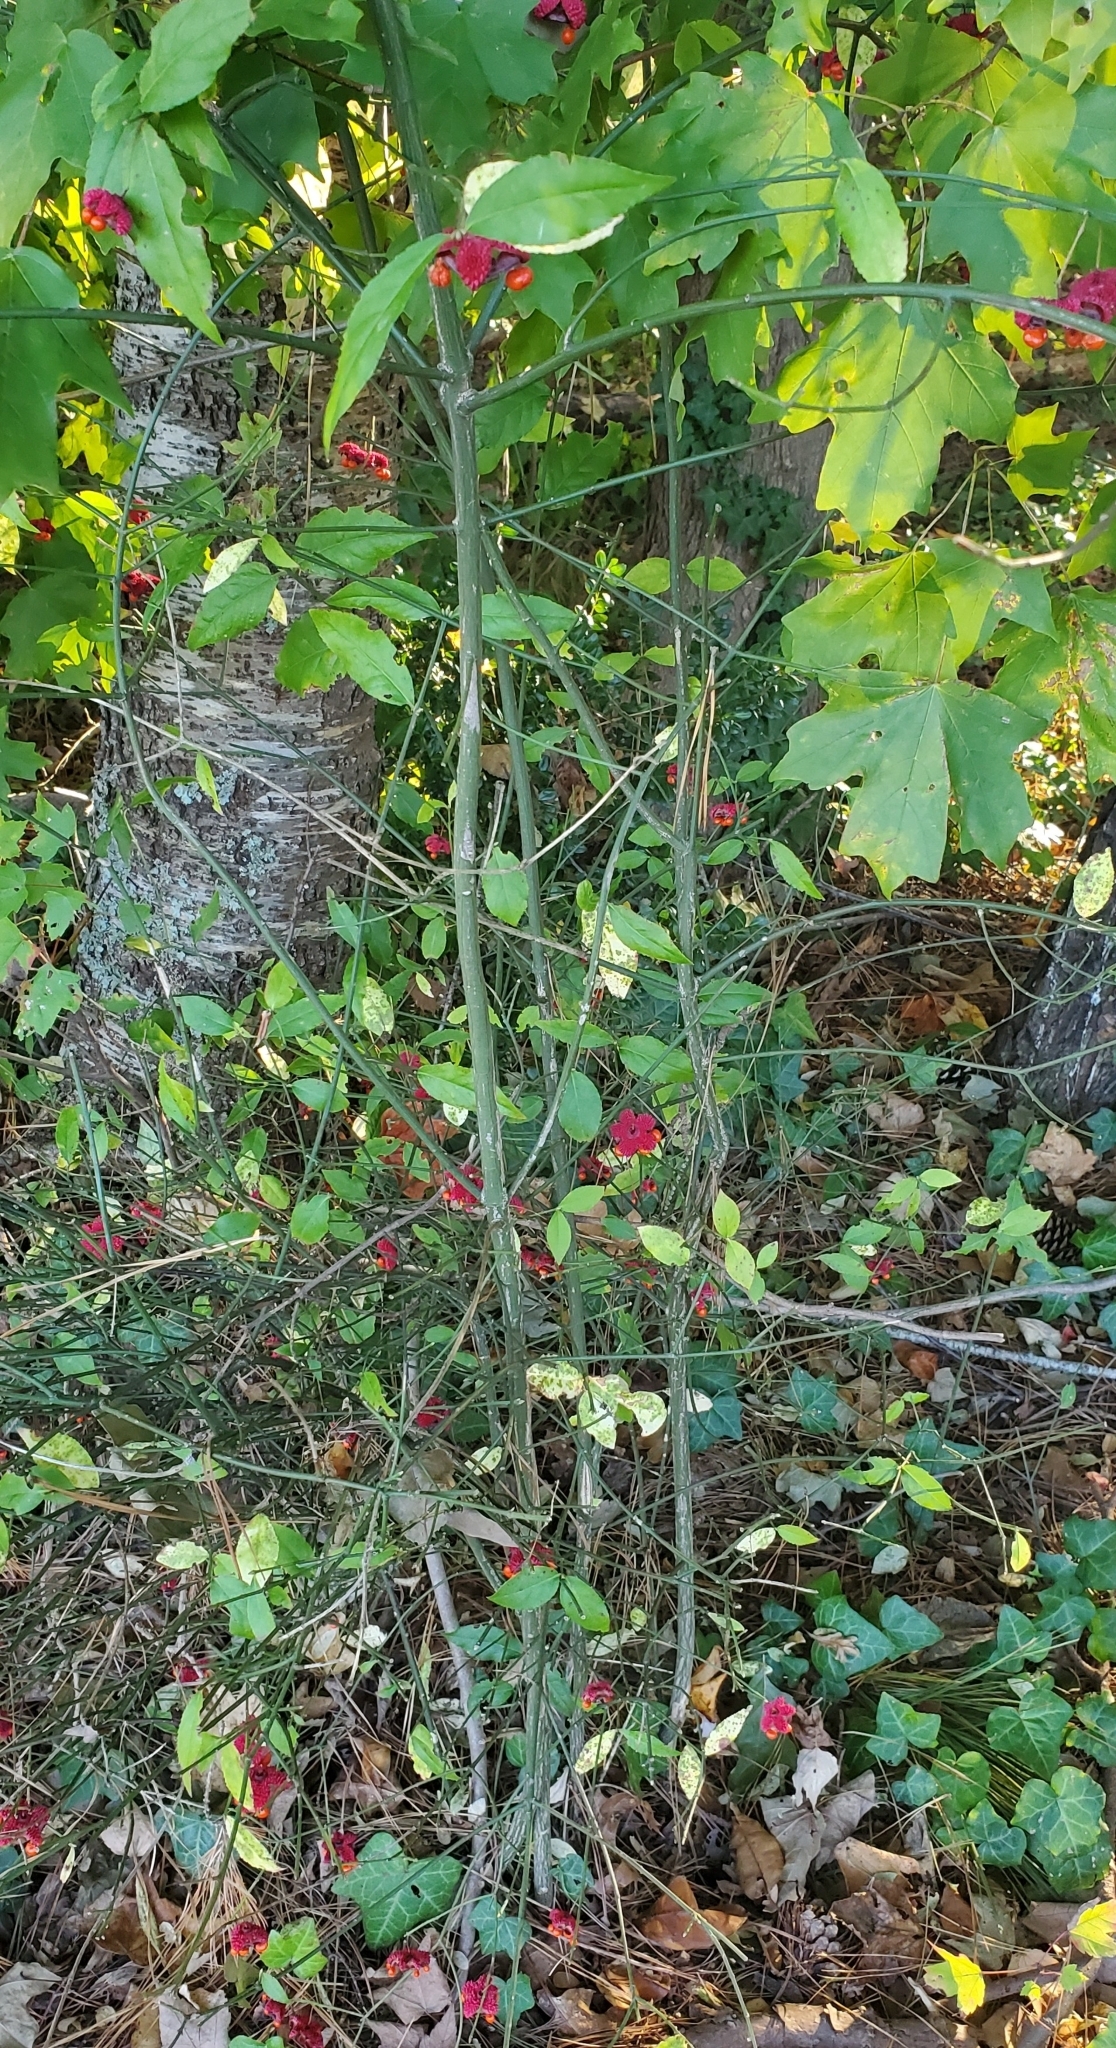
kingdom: Plantae
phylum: Tracheophyta
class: Magnoliopsida
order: Celastrales
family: Celastraceae
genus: Euonymus
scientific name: Euonymus americanus
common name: Bursting-heart
